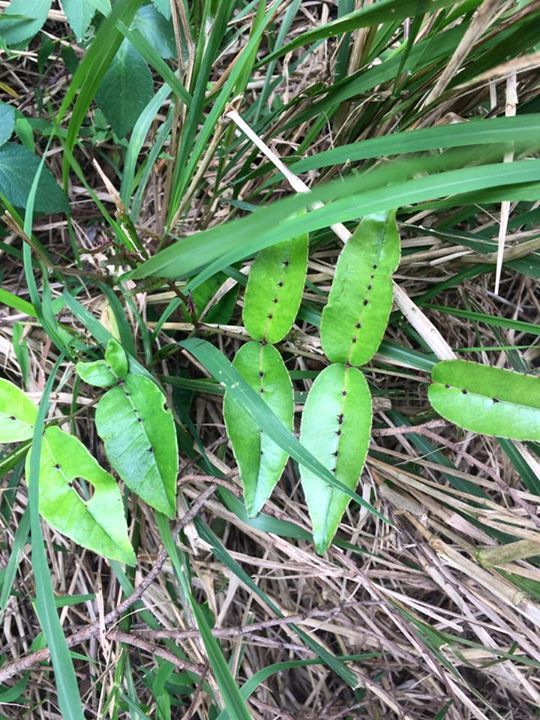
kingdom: Plantae
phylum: Tracheophyta
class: Magnoliopsida
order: Sapindales
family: Rutaceae
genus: Zanthoxylum
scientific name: Zanthoxylum nitidum
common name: Shiny-leaf prickly-ash
